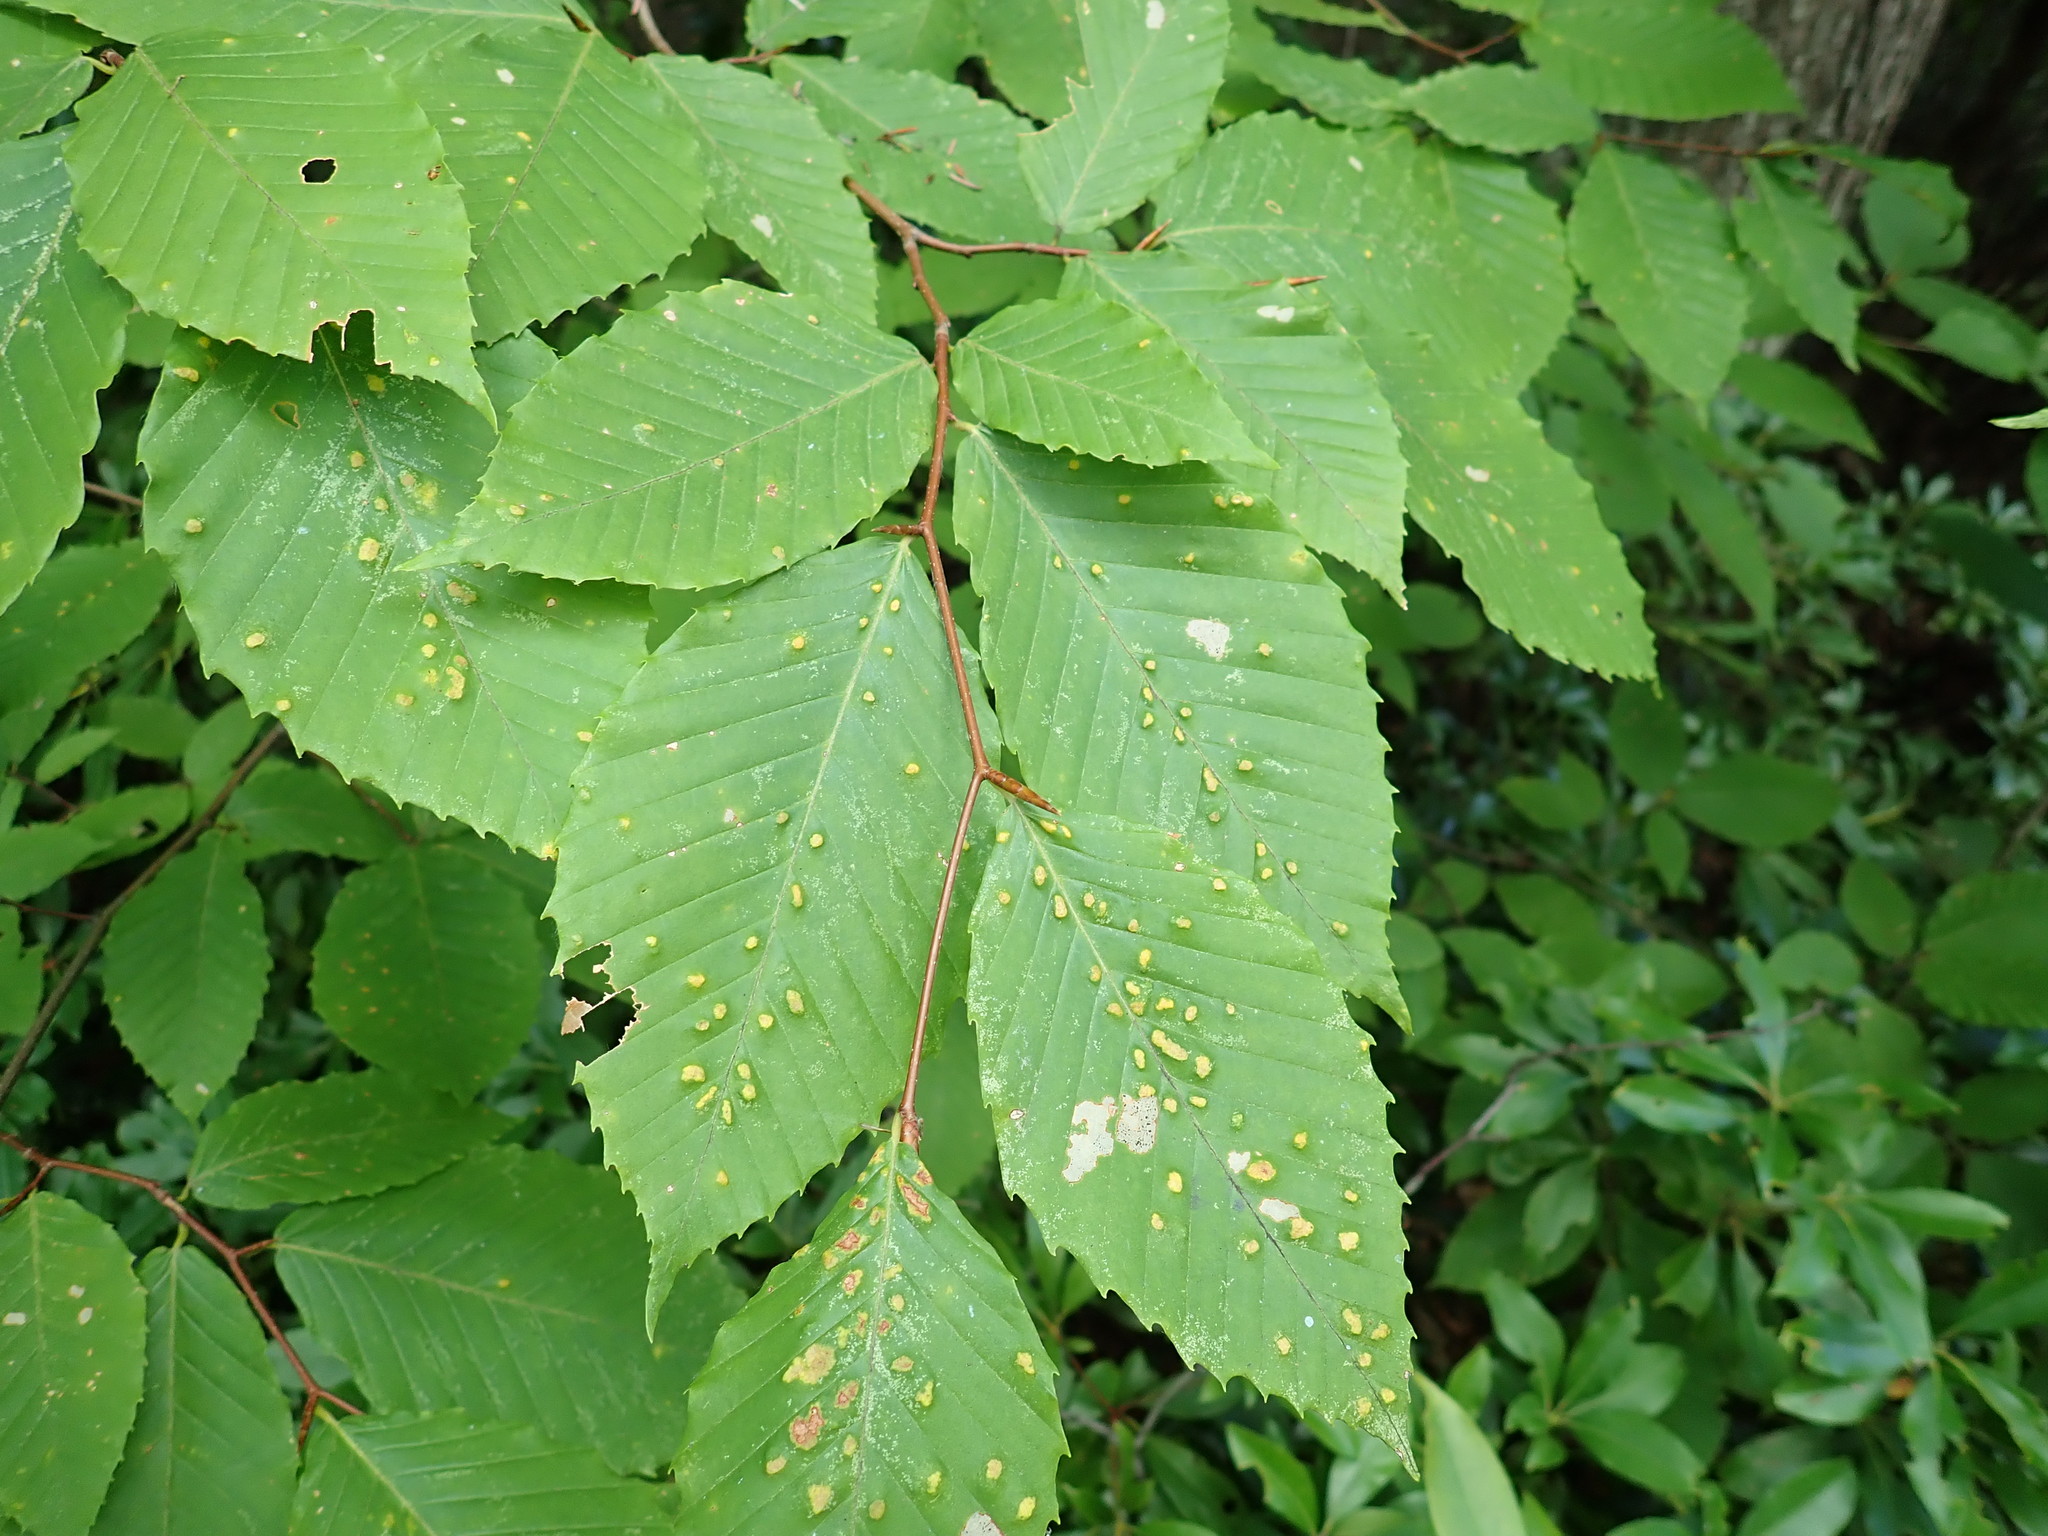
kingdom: Plantae
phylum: Tracheophyta
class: Magnoliopsida
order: Fagales
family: Fagaceae
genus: Fagus
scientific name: Fagus grandifolia
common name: American beech
